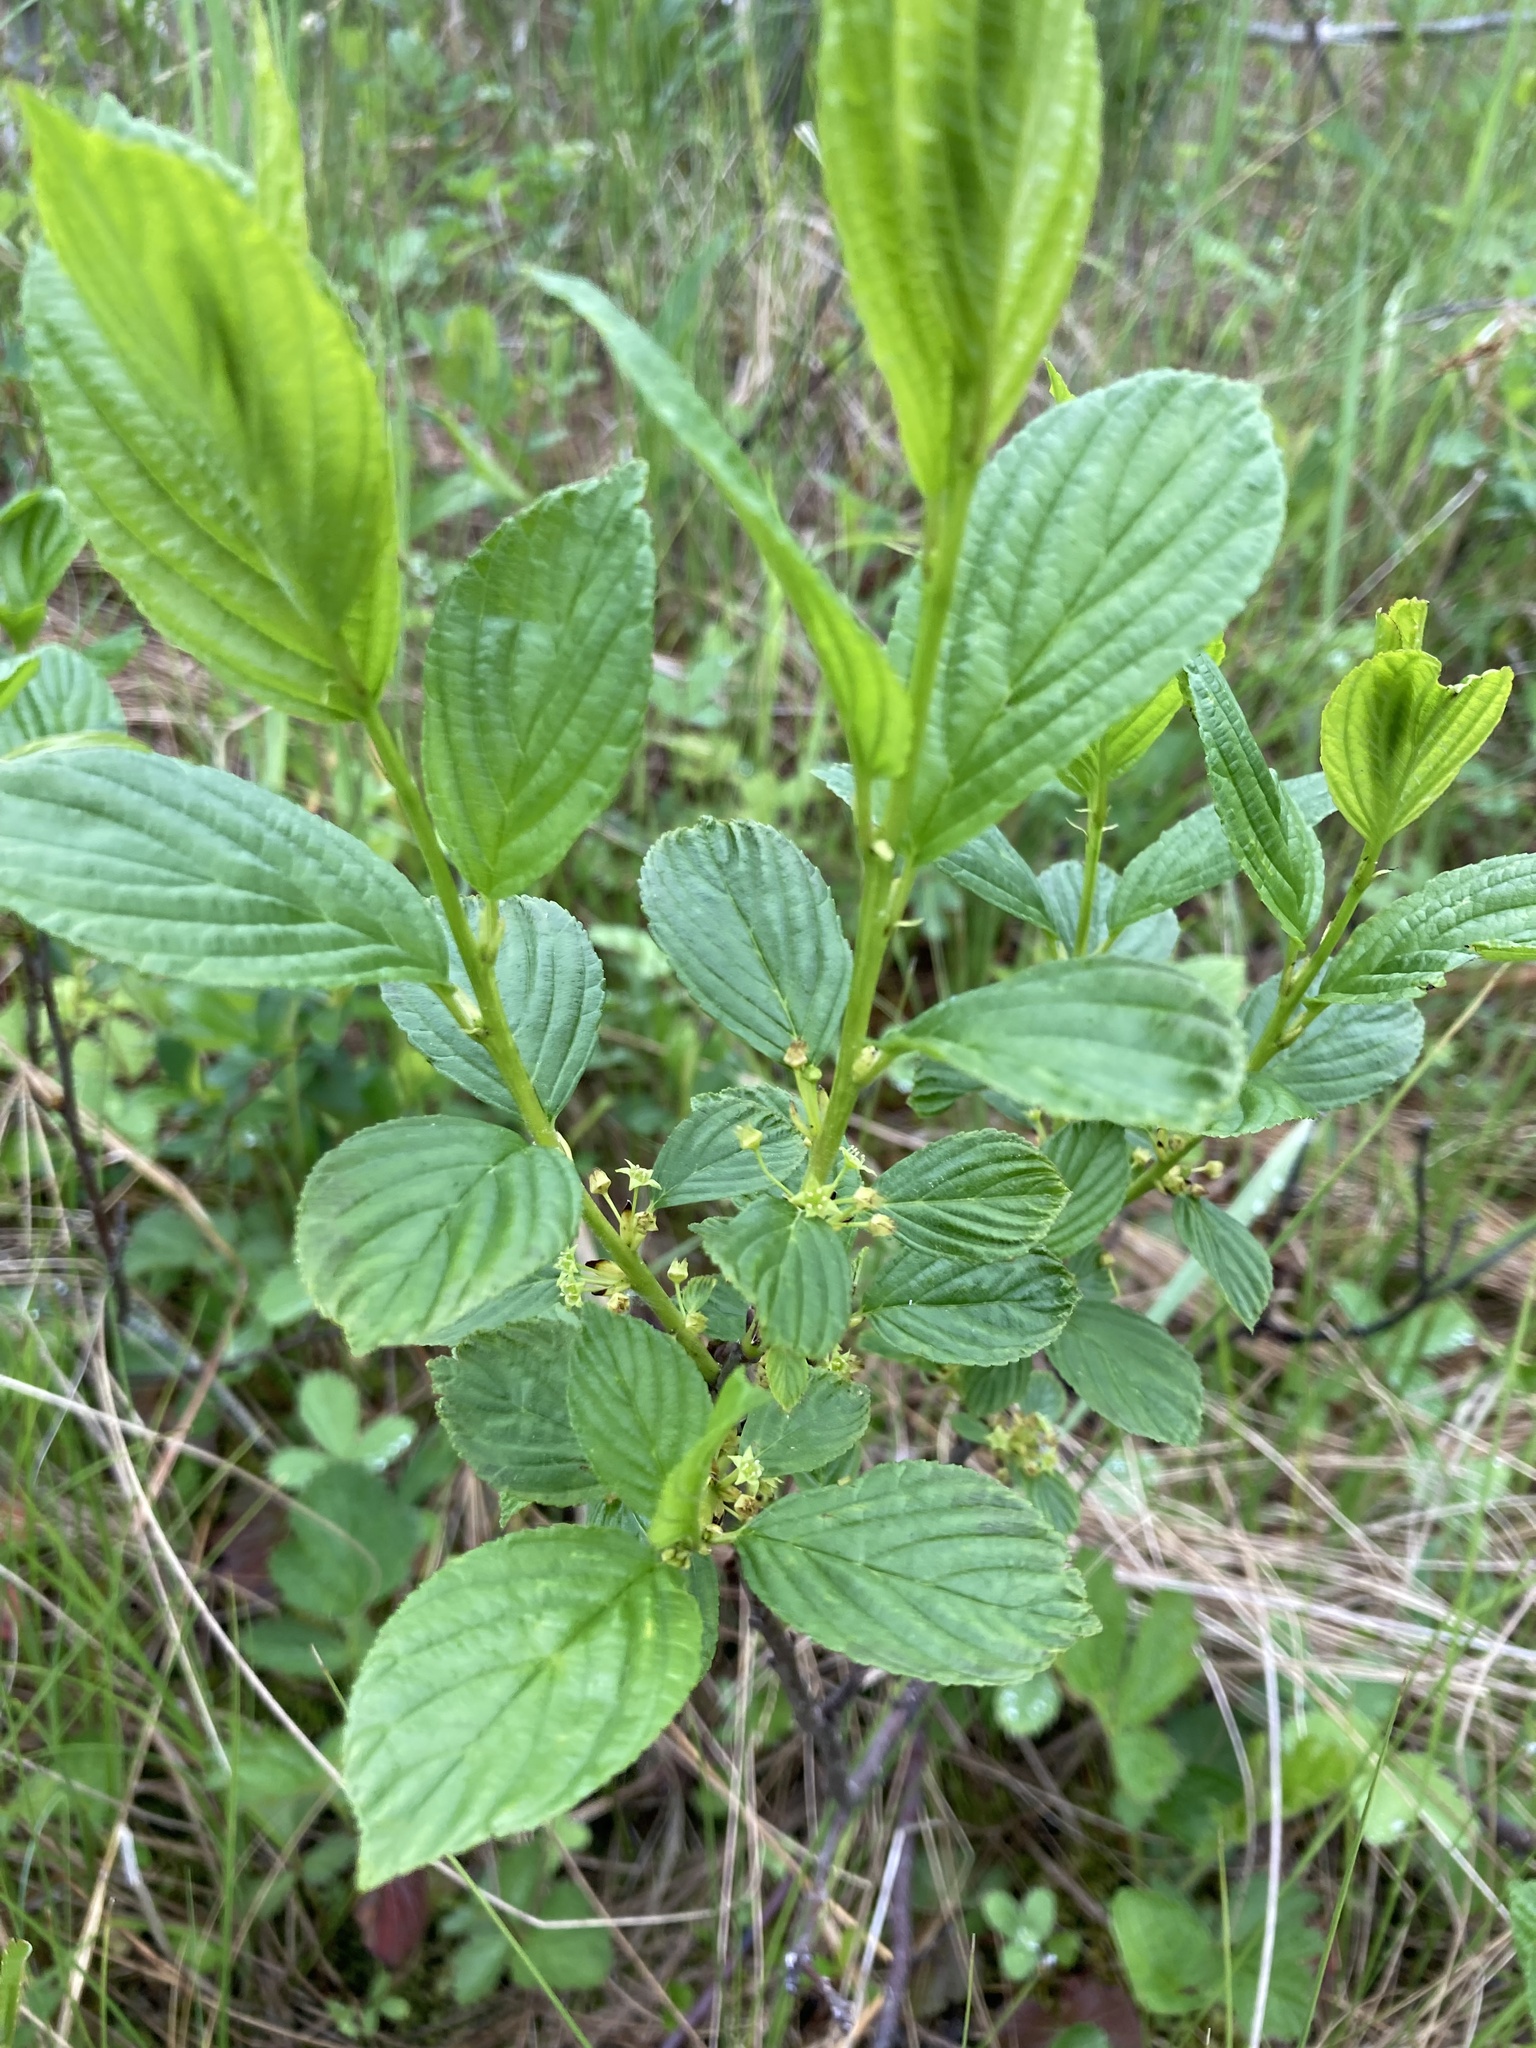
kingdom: Plantae
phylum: Tracheophyta
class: Magnoliopsida
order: Rosales
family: Rhamnaceae
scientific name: Rhamnaceae
